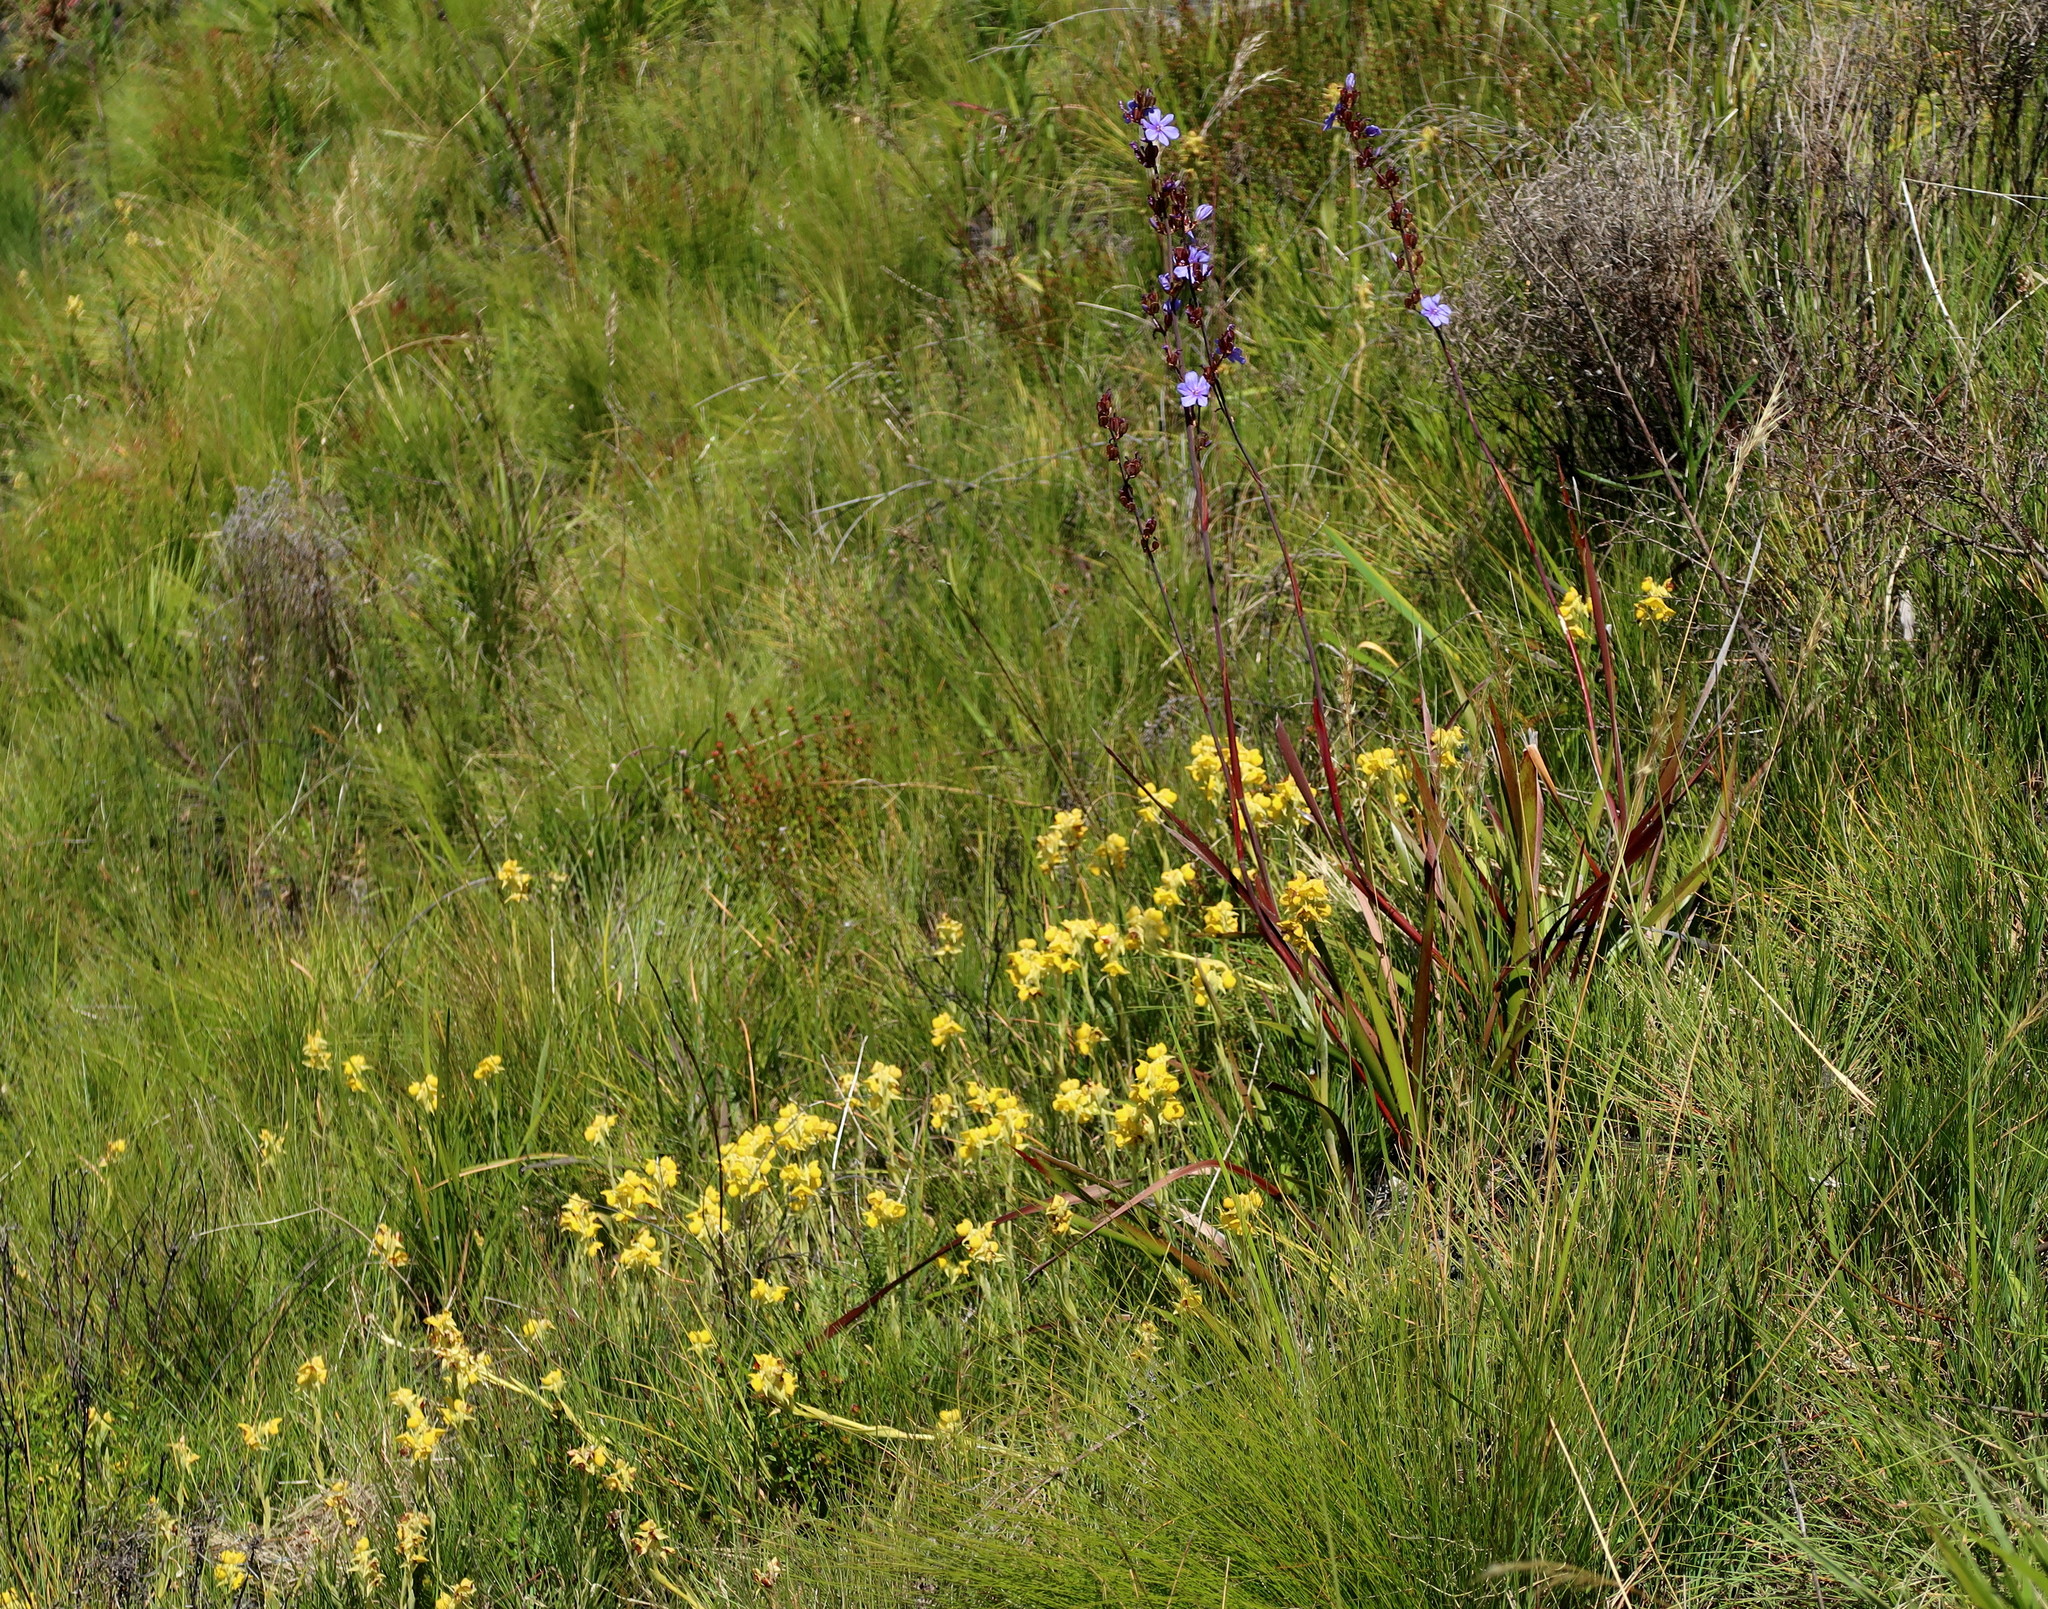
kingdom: Plantae
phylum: Tracheophyta
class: Liliopsida
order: Asparagales
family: Iridaceae
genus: Aristea
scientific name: Aristea bakeri
